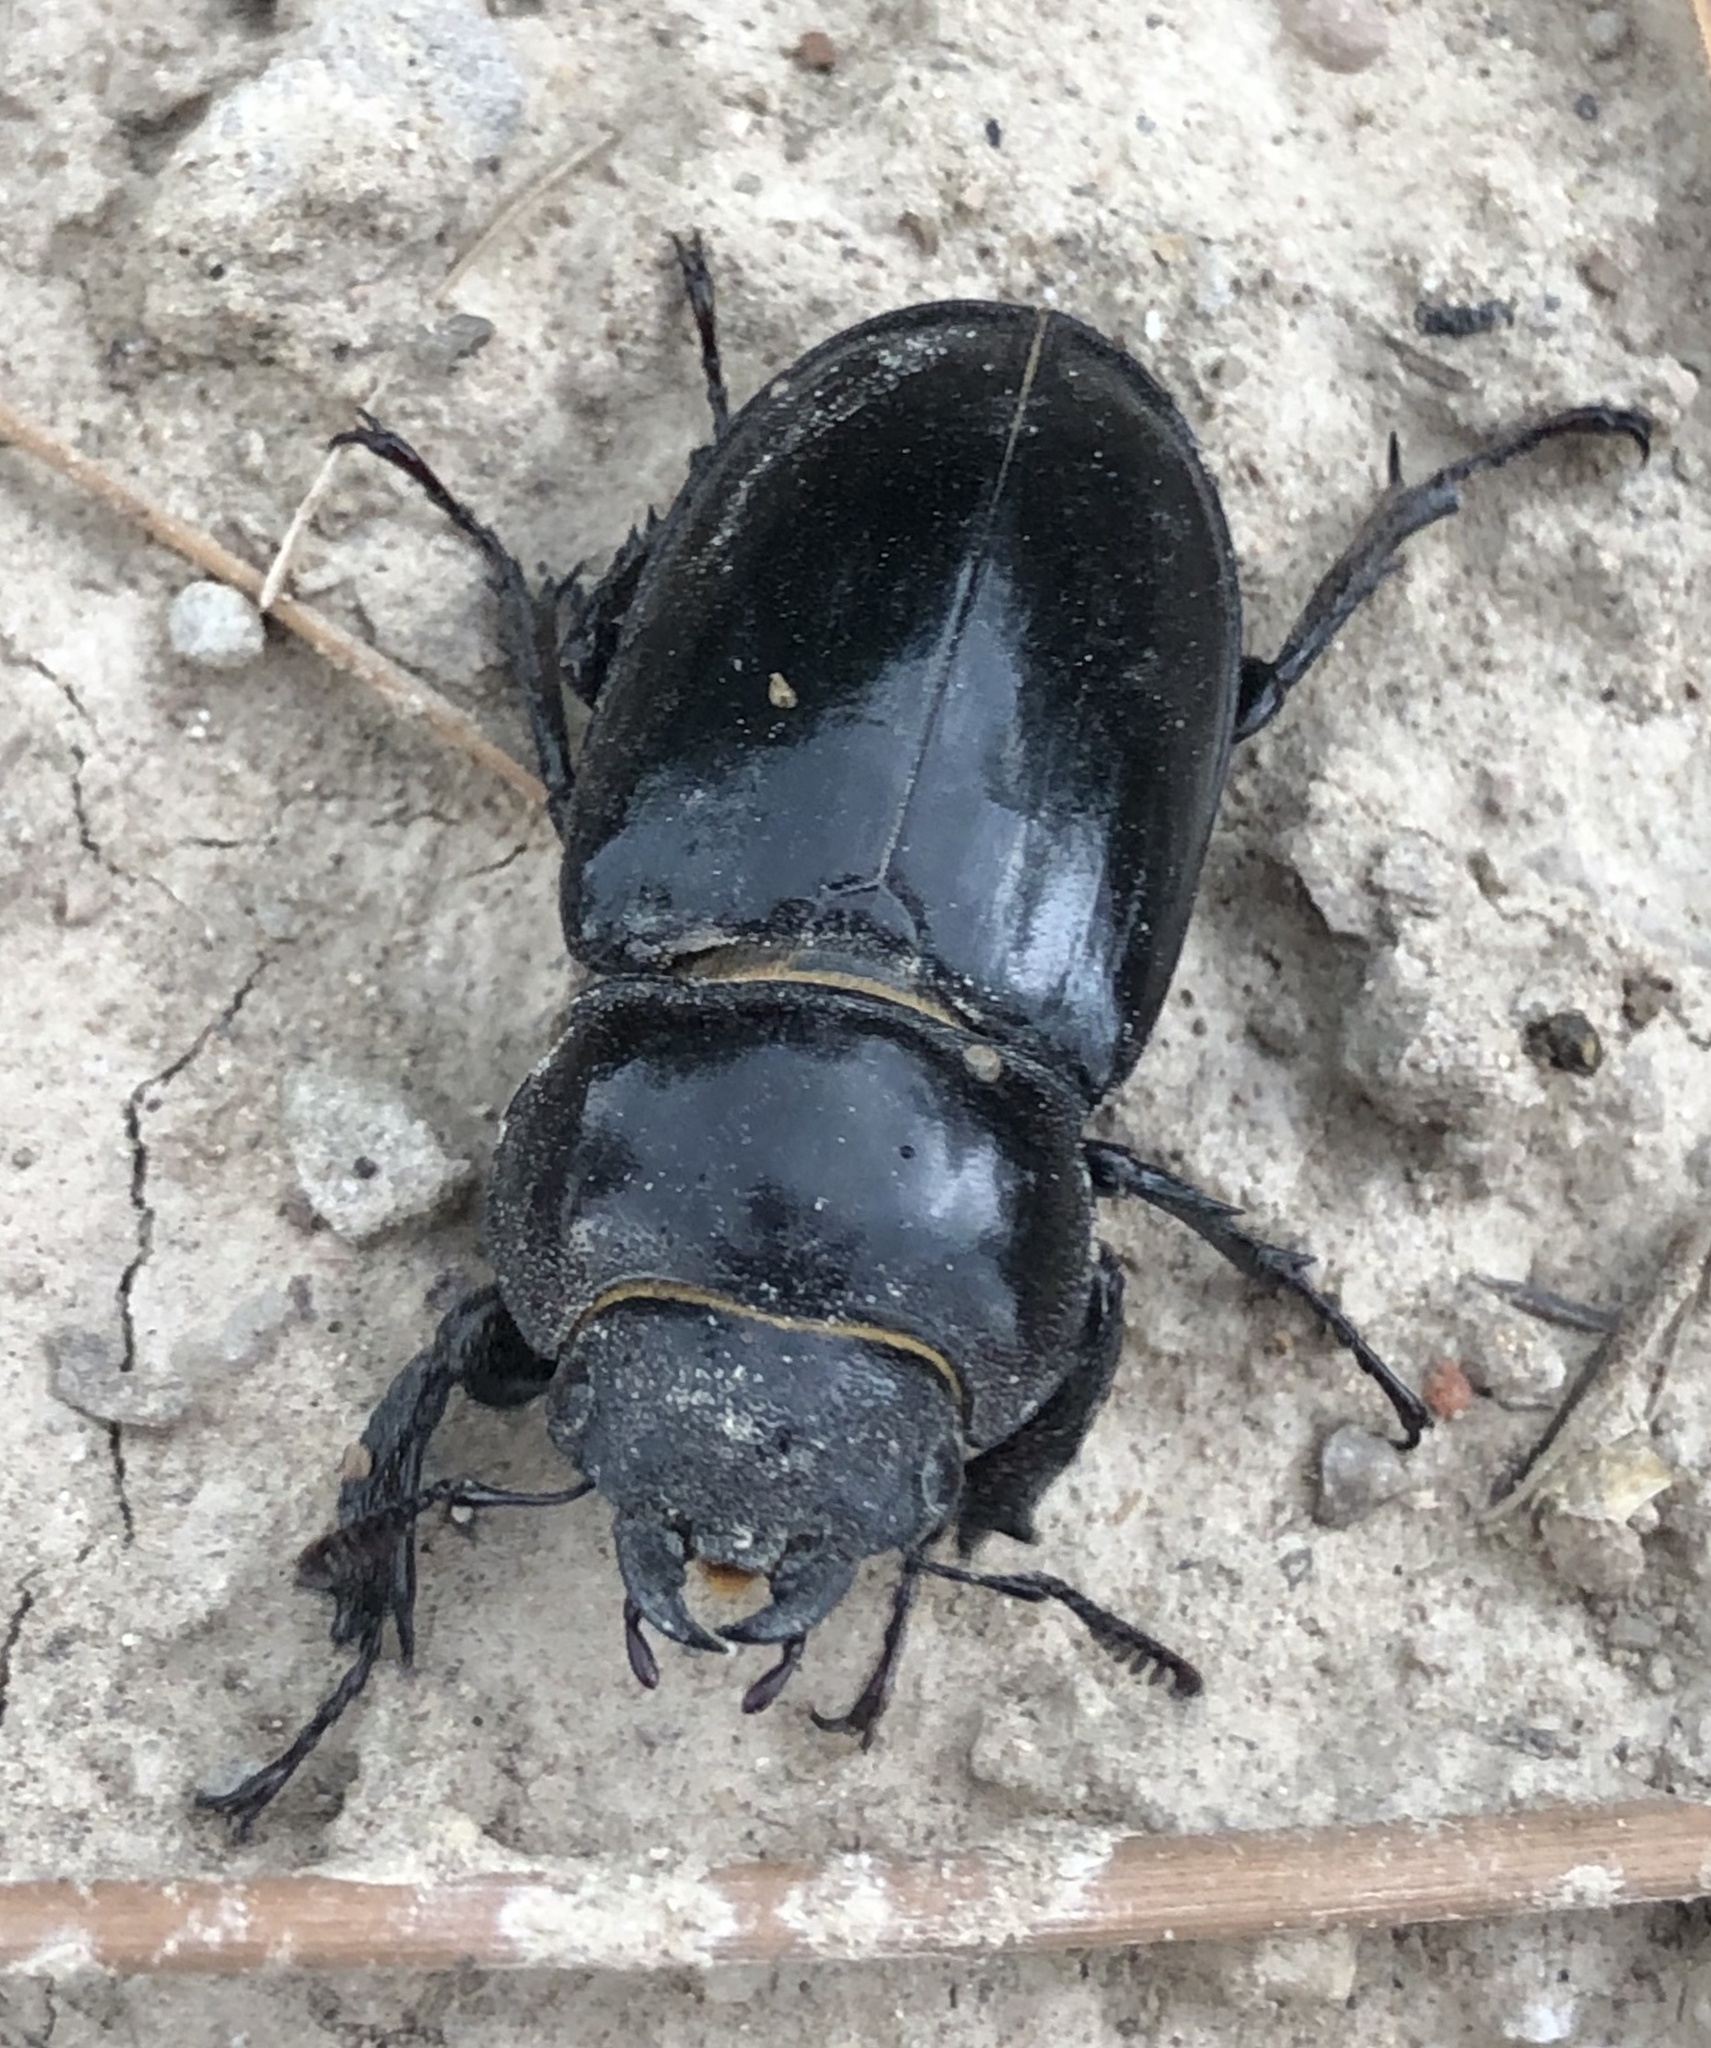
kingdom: Animalia
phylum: Arthropoda
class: Insecta
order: Coleoptera
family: Lucanidae
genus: Lucanus
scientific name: Lucanus barbarossa
